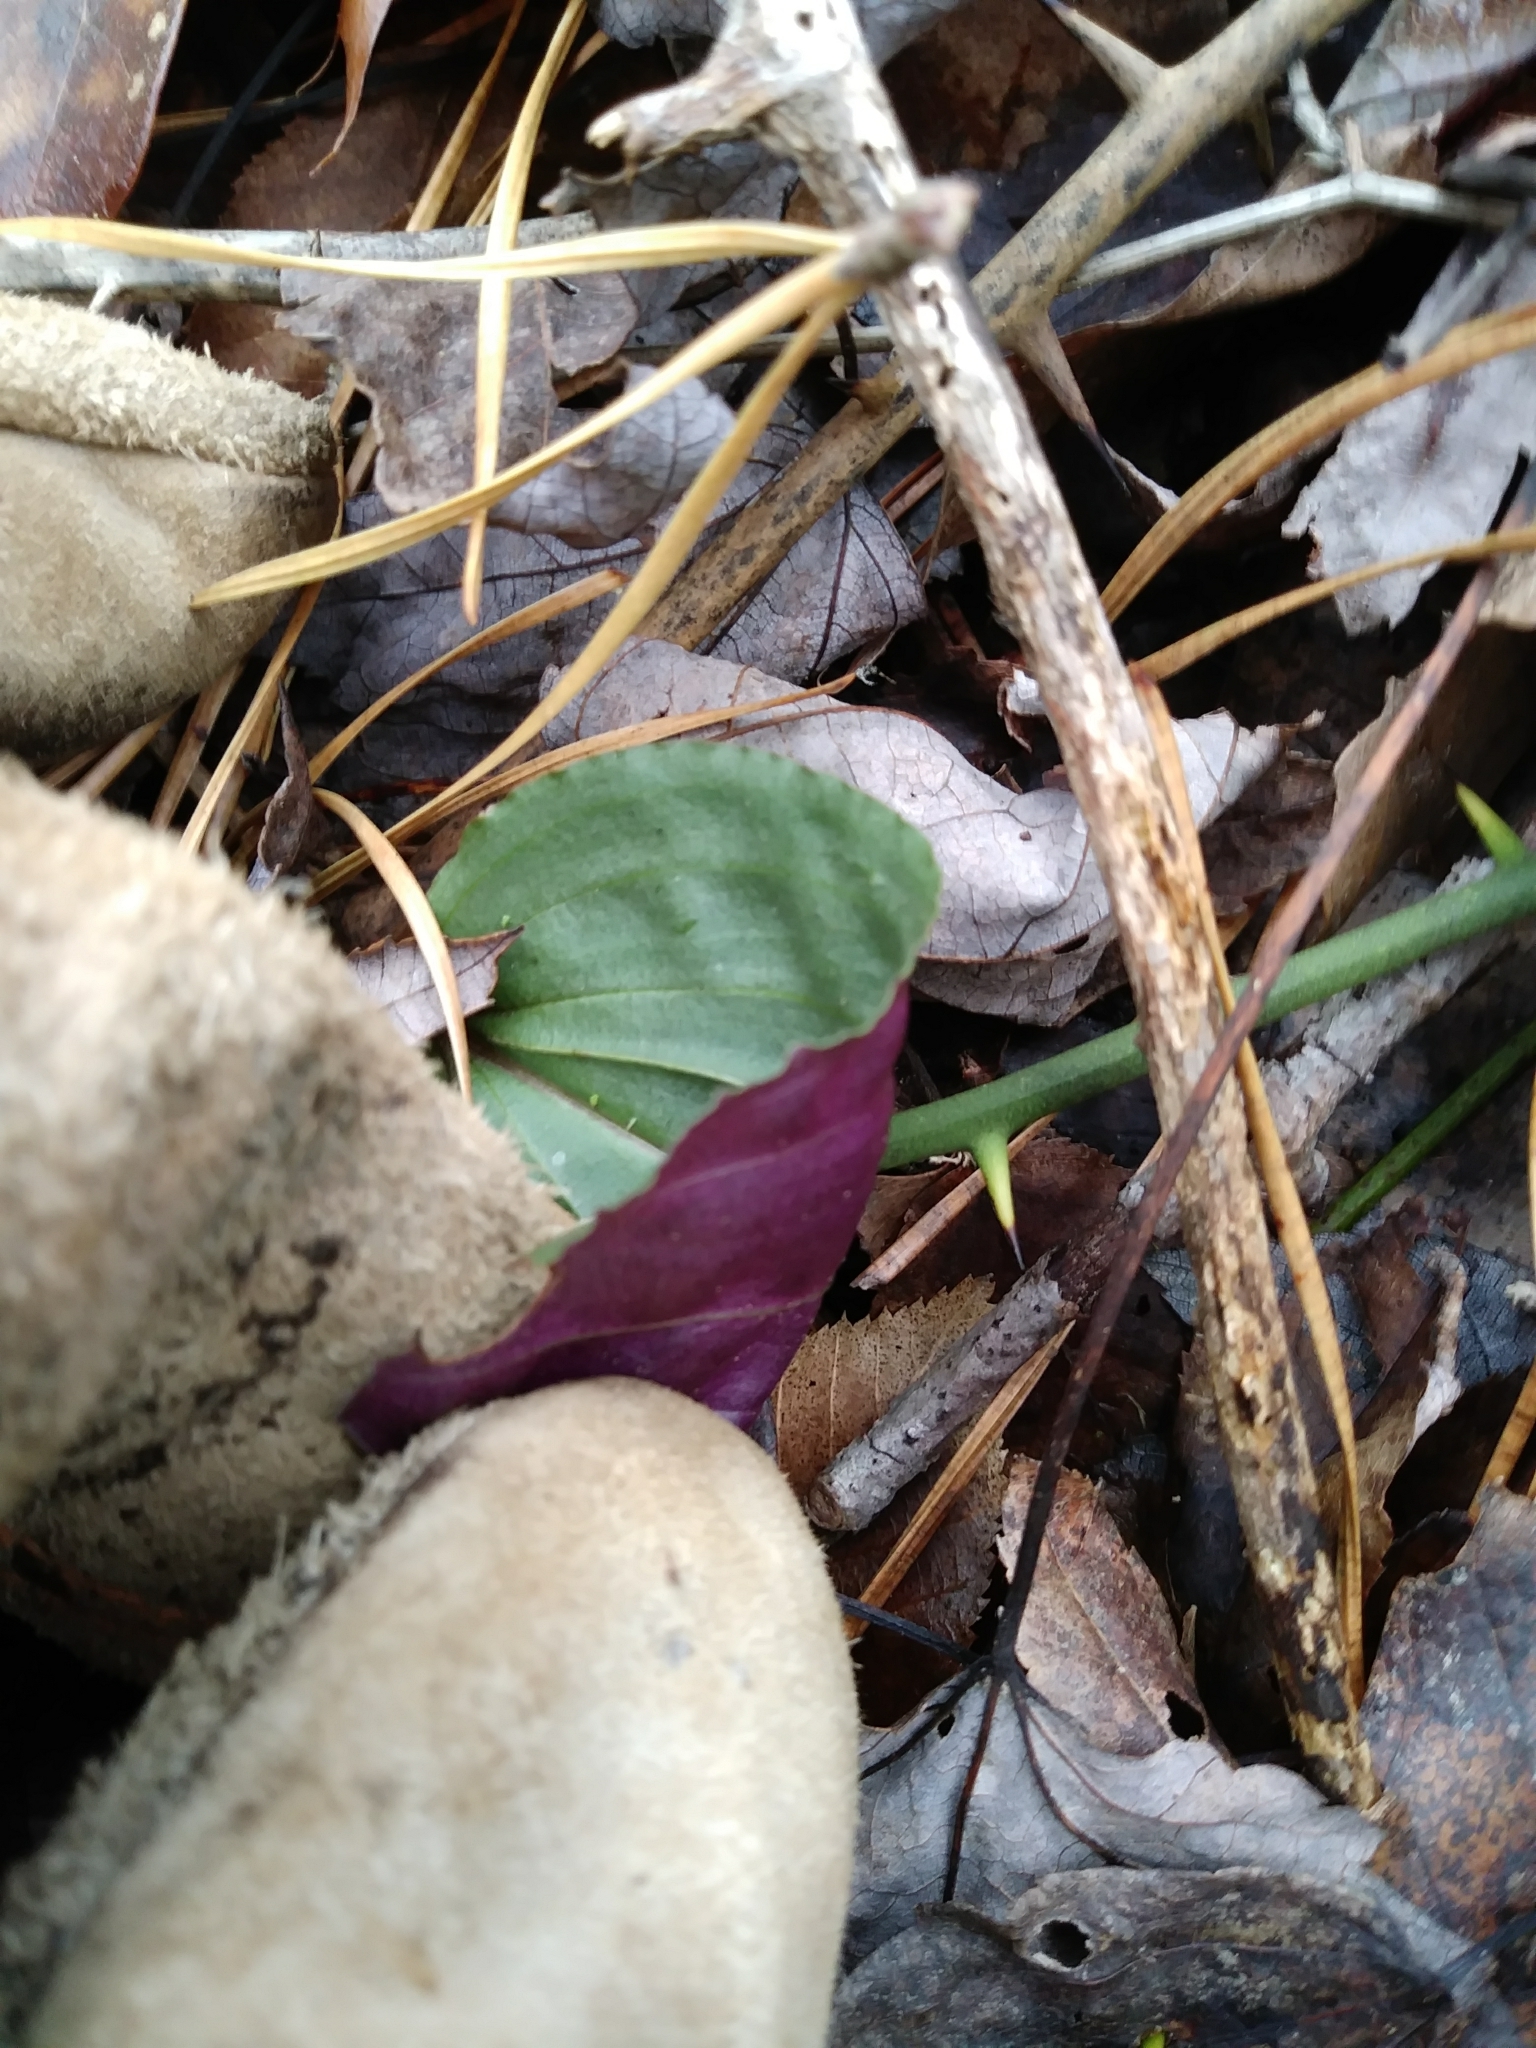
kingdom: Plantae
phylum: Tracheophyta
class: Liliopsida
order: Asparagales
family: Orchidaceae
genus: Tipularia
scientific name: Tipularia discolor
